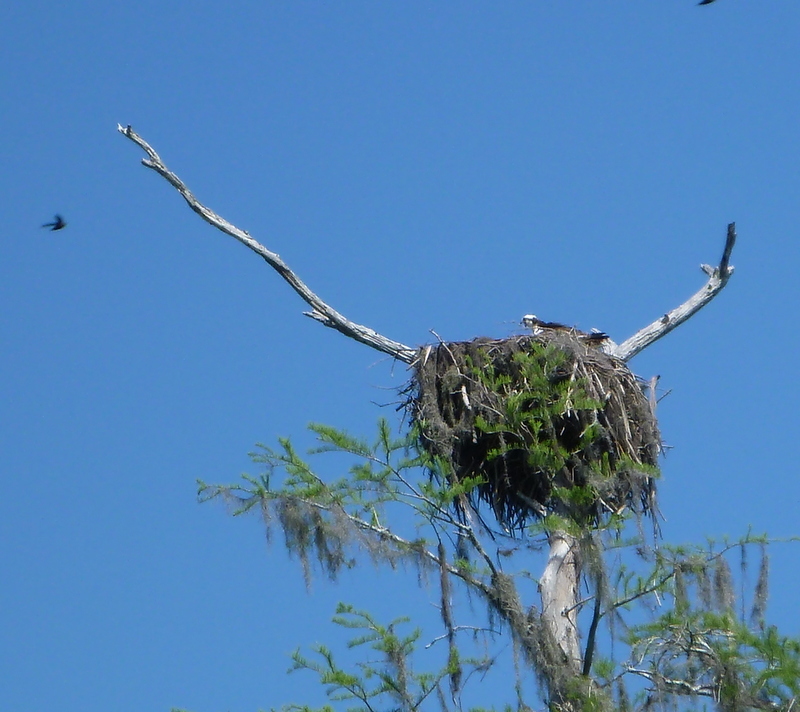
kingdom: Animalia
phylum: Chordata
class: Aves
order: Accipitriformes
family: Pandionidae
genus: Pandion
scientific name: Pandion haliaetus
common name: Osprey
